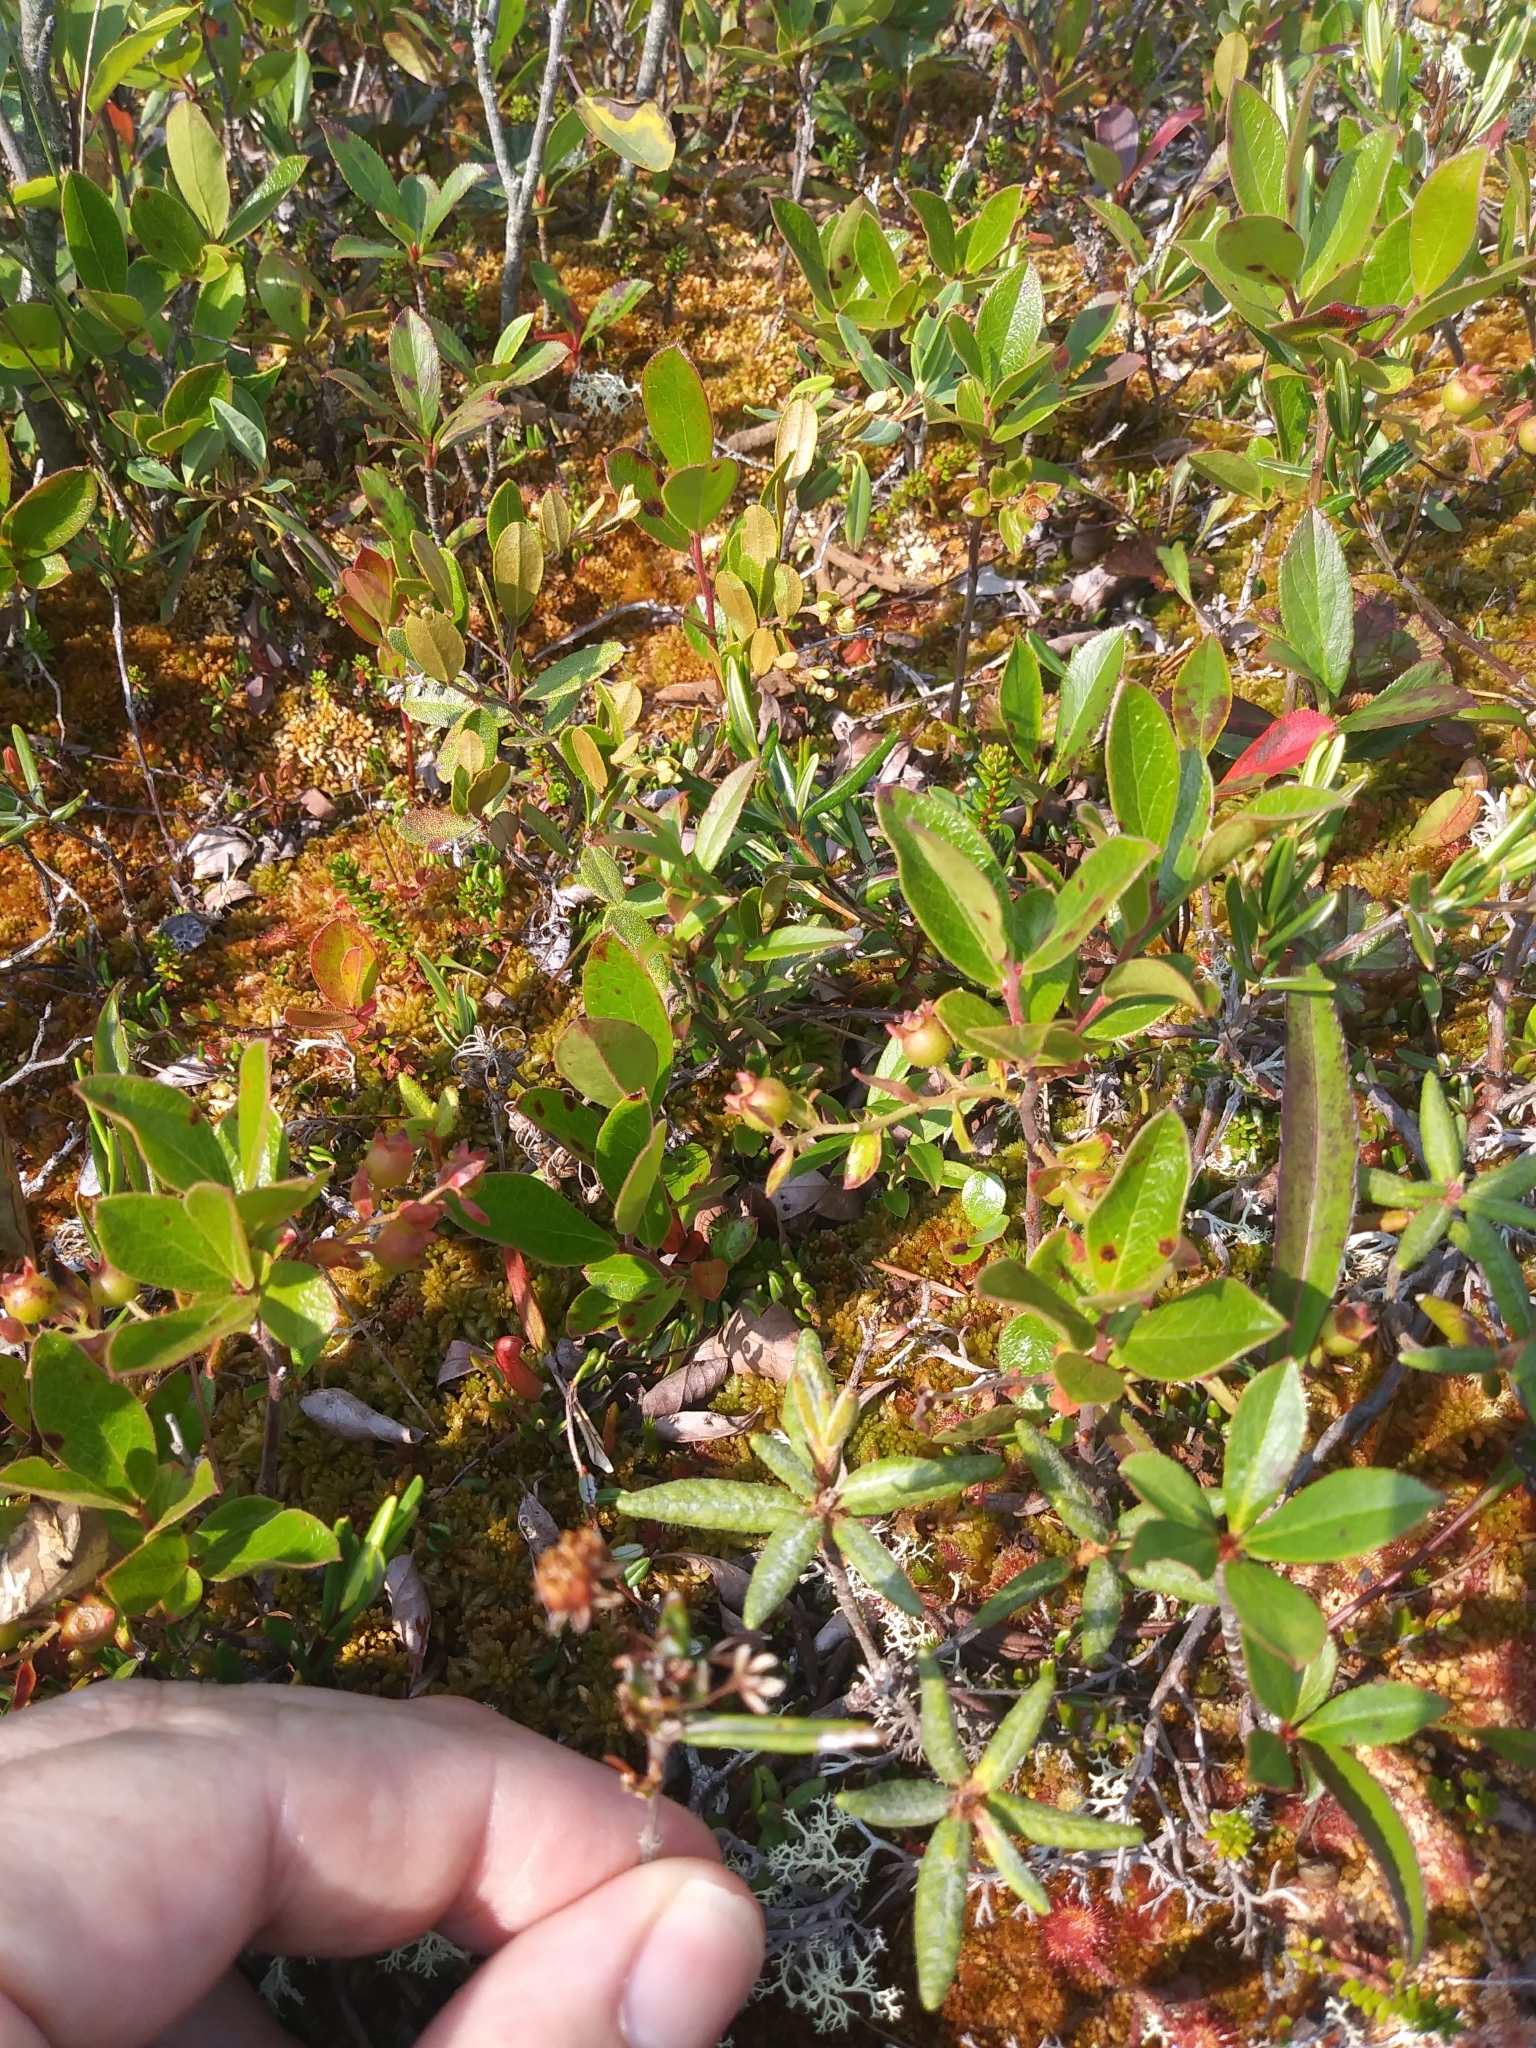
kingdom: Plantae
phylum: Tracheophyta
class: Magnoliopsida
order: Ericales
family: Ericaceae
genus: Kalmia
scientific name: Kalmia polifolia
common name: Bog-laurel
